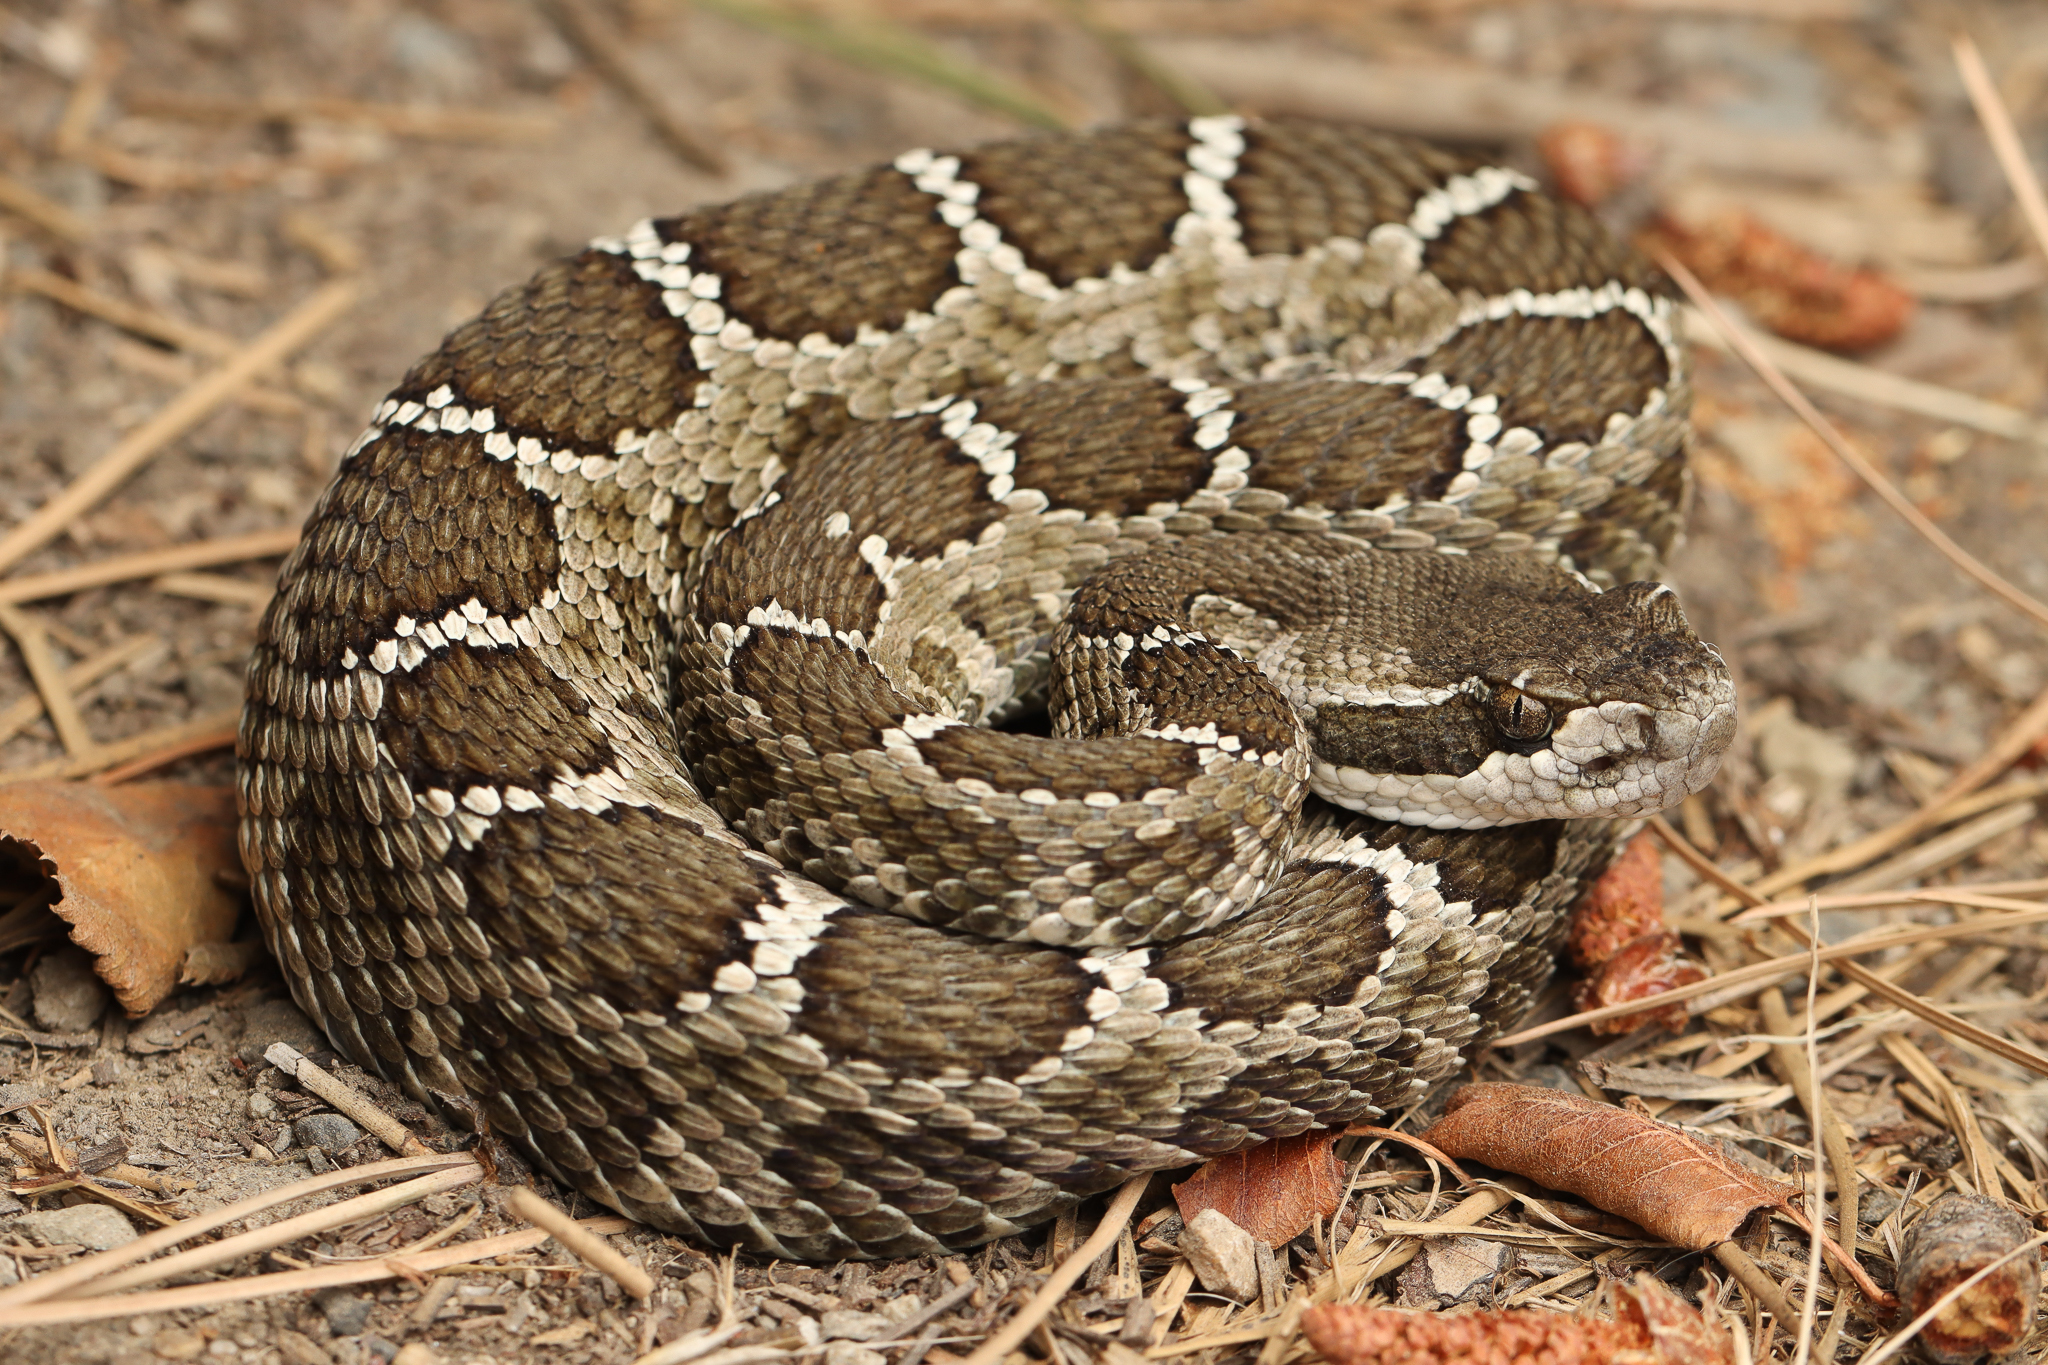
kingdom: Animalia
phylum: Chordata
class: Squamata
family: Viperidae
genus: Crotalus
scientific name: Crotalus oreganus
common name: Abyssus
